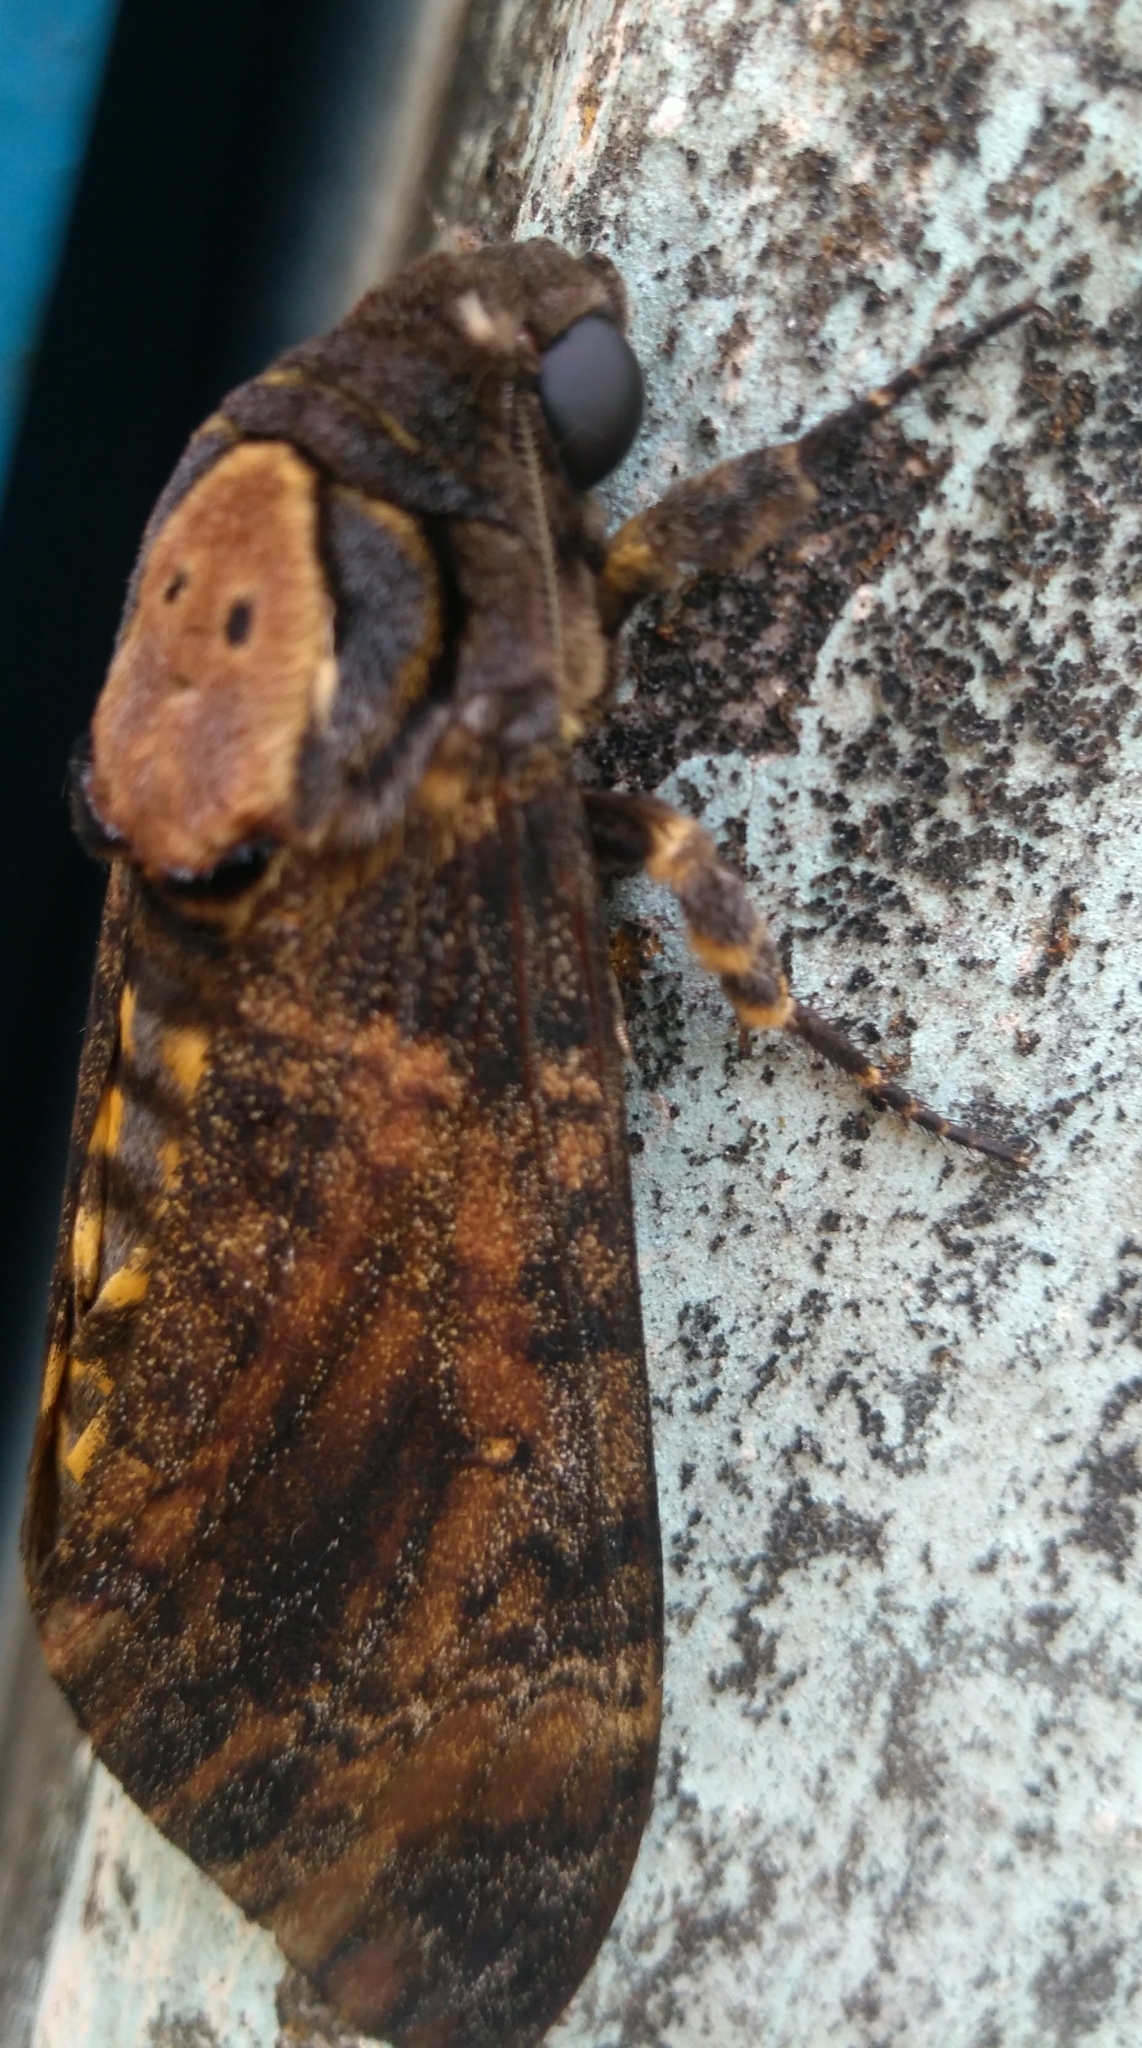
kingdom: Animalia
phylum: Arthropoda
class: Insecta
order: Lepidoptera
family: Sphingidae
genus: Acherontia
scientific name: Acherontia styx
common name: Death's-head hawk moth
